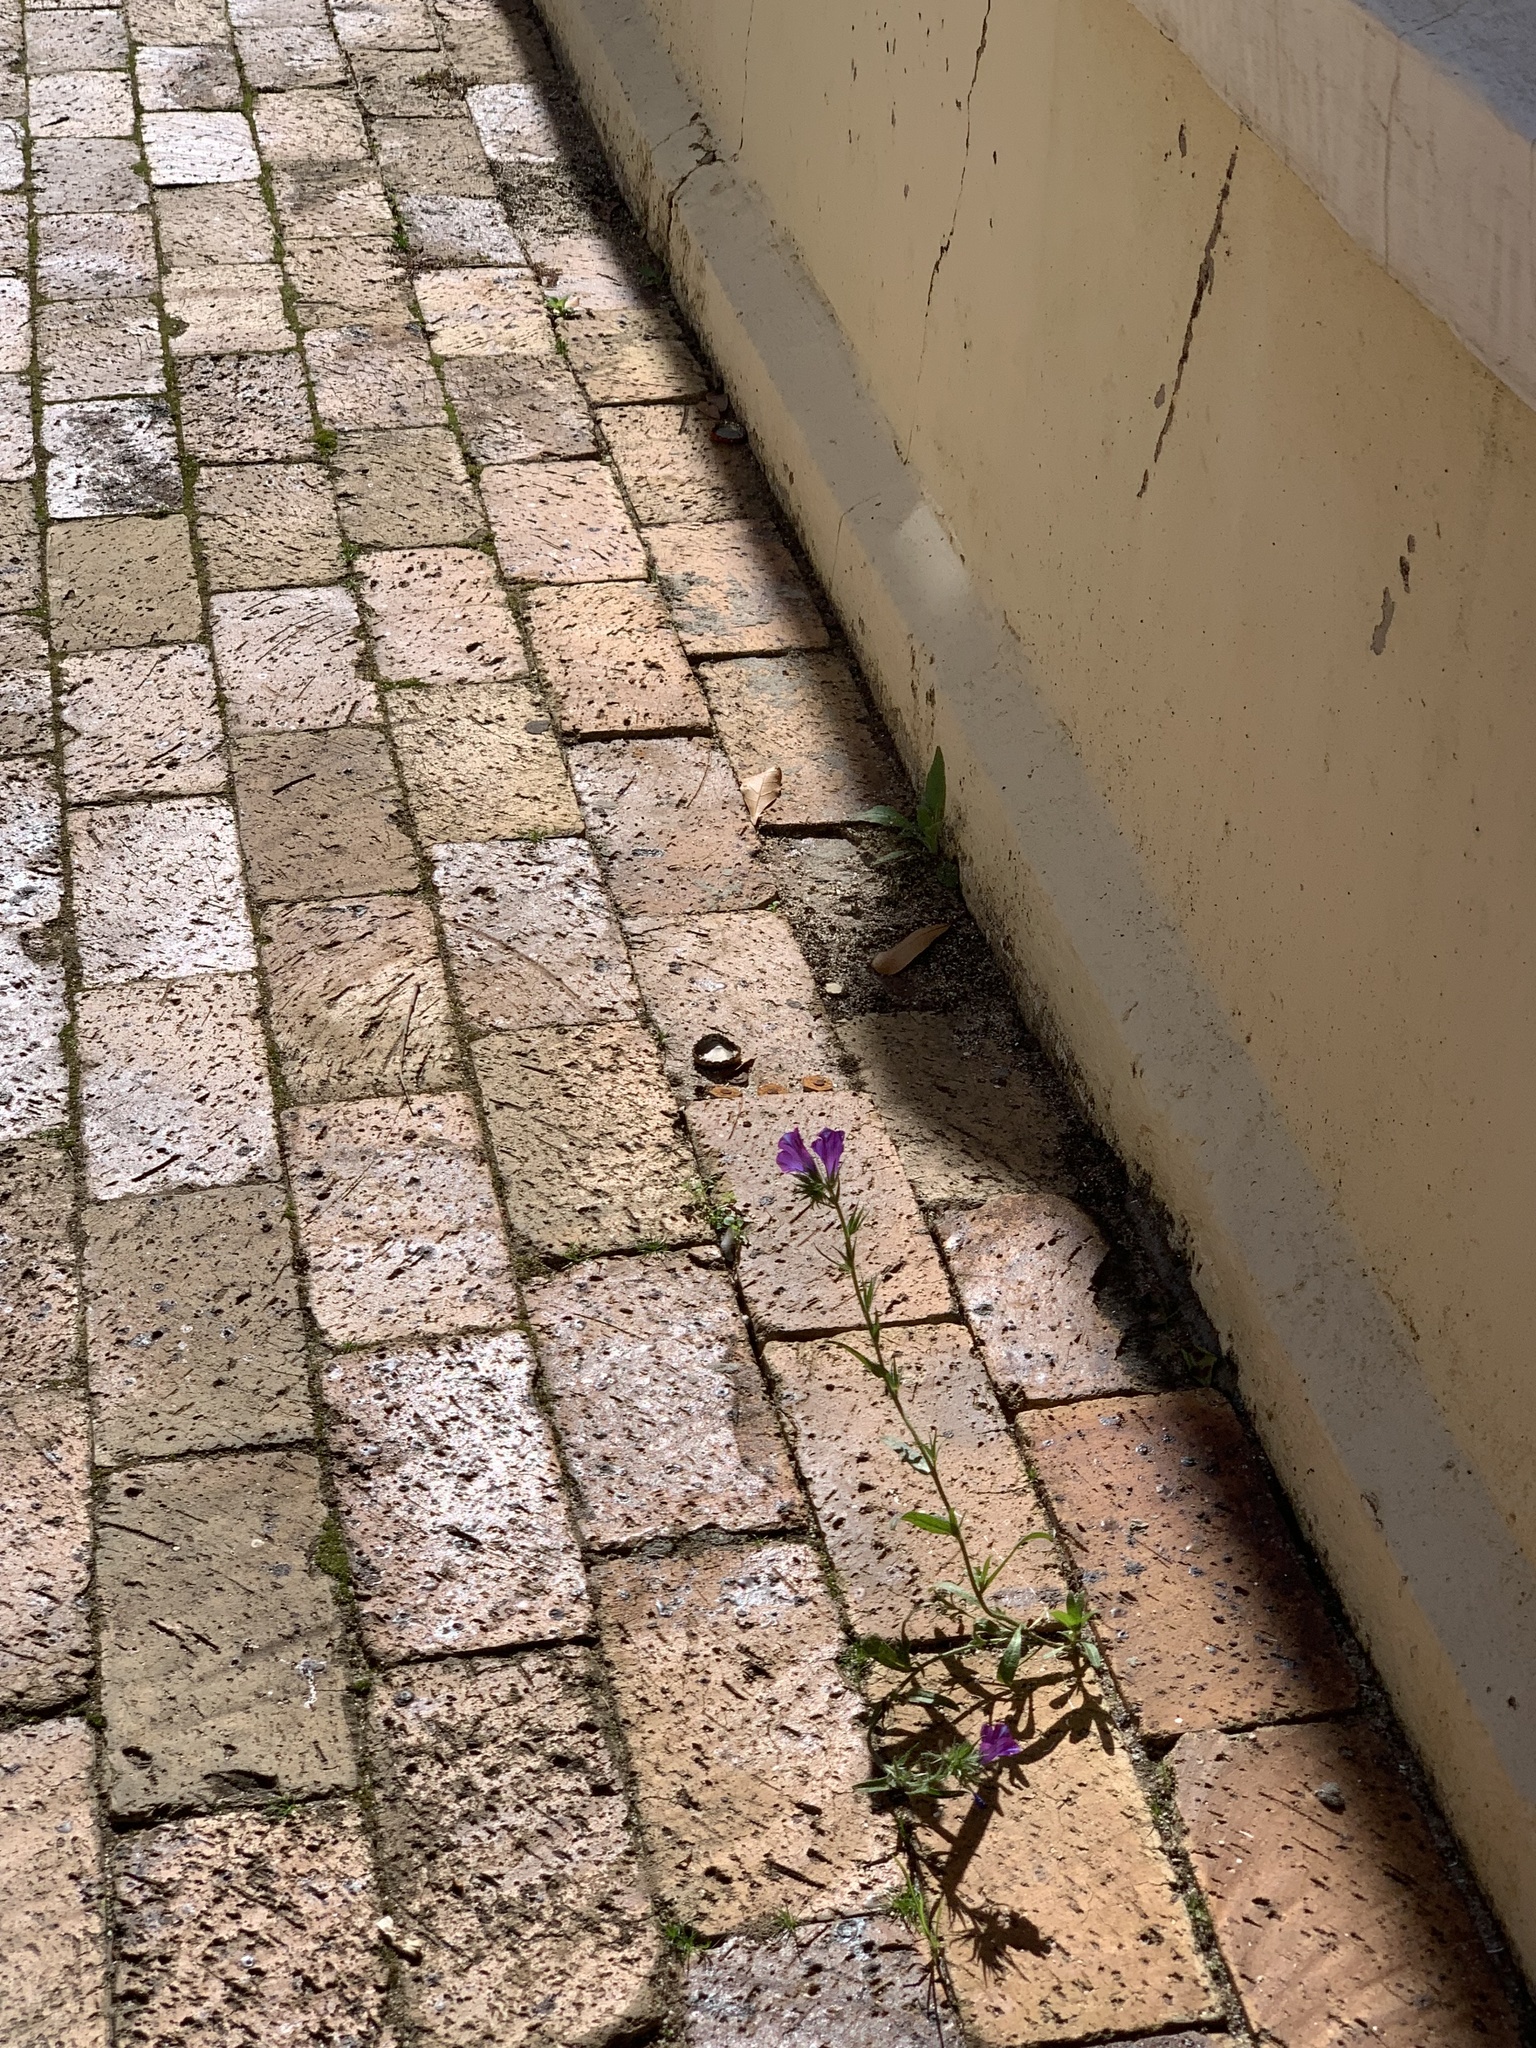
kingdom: Plantae
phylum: Tracheophyta
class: Magnoliopsida
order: Boraginales
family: Boraginaceae
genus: Echium
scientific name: Echium plantagineum
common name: Purple viper's-bugloss
